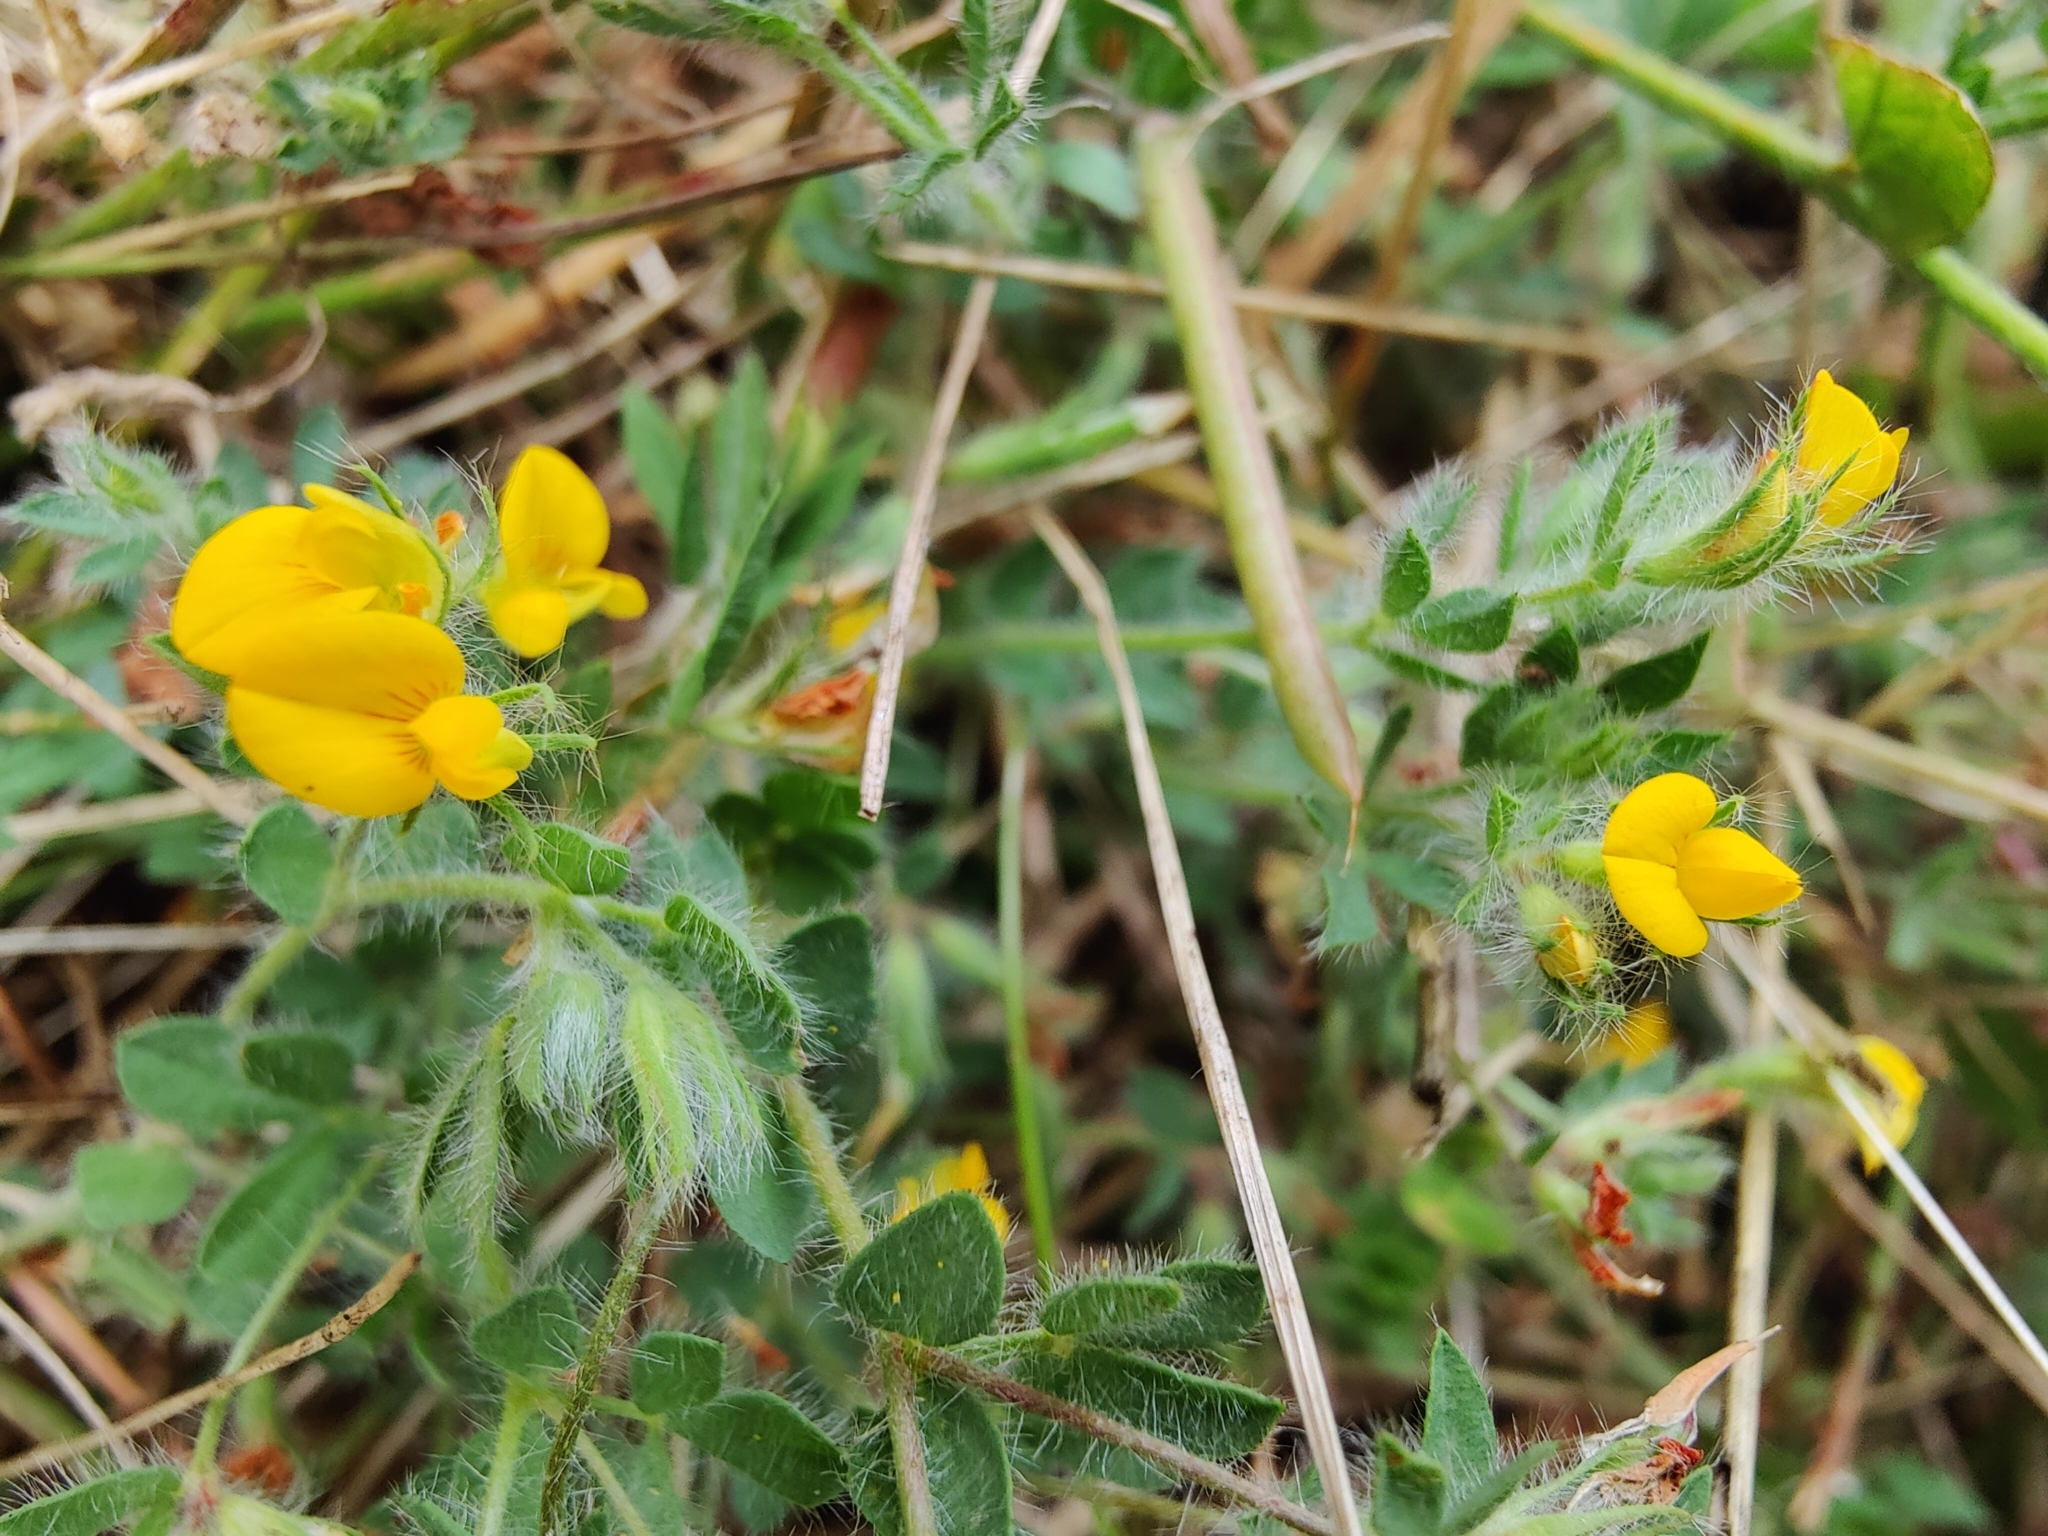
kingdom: Plantae
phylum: Tracheophyta
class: Magnoliopsida
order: Fabales
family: Fabaceae
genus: Lotus
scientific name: Lotus subbiflorus
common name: Hairy bird's-foot trefoil
